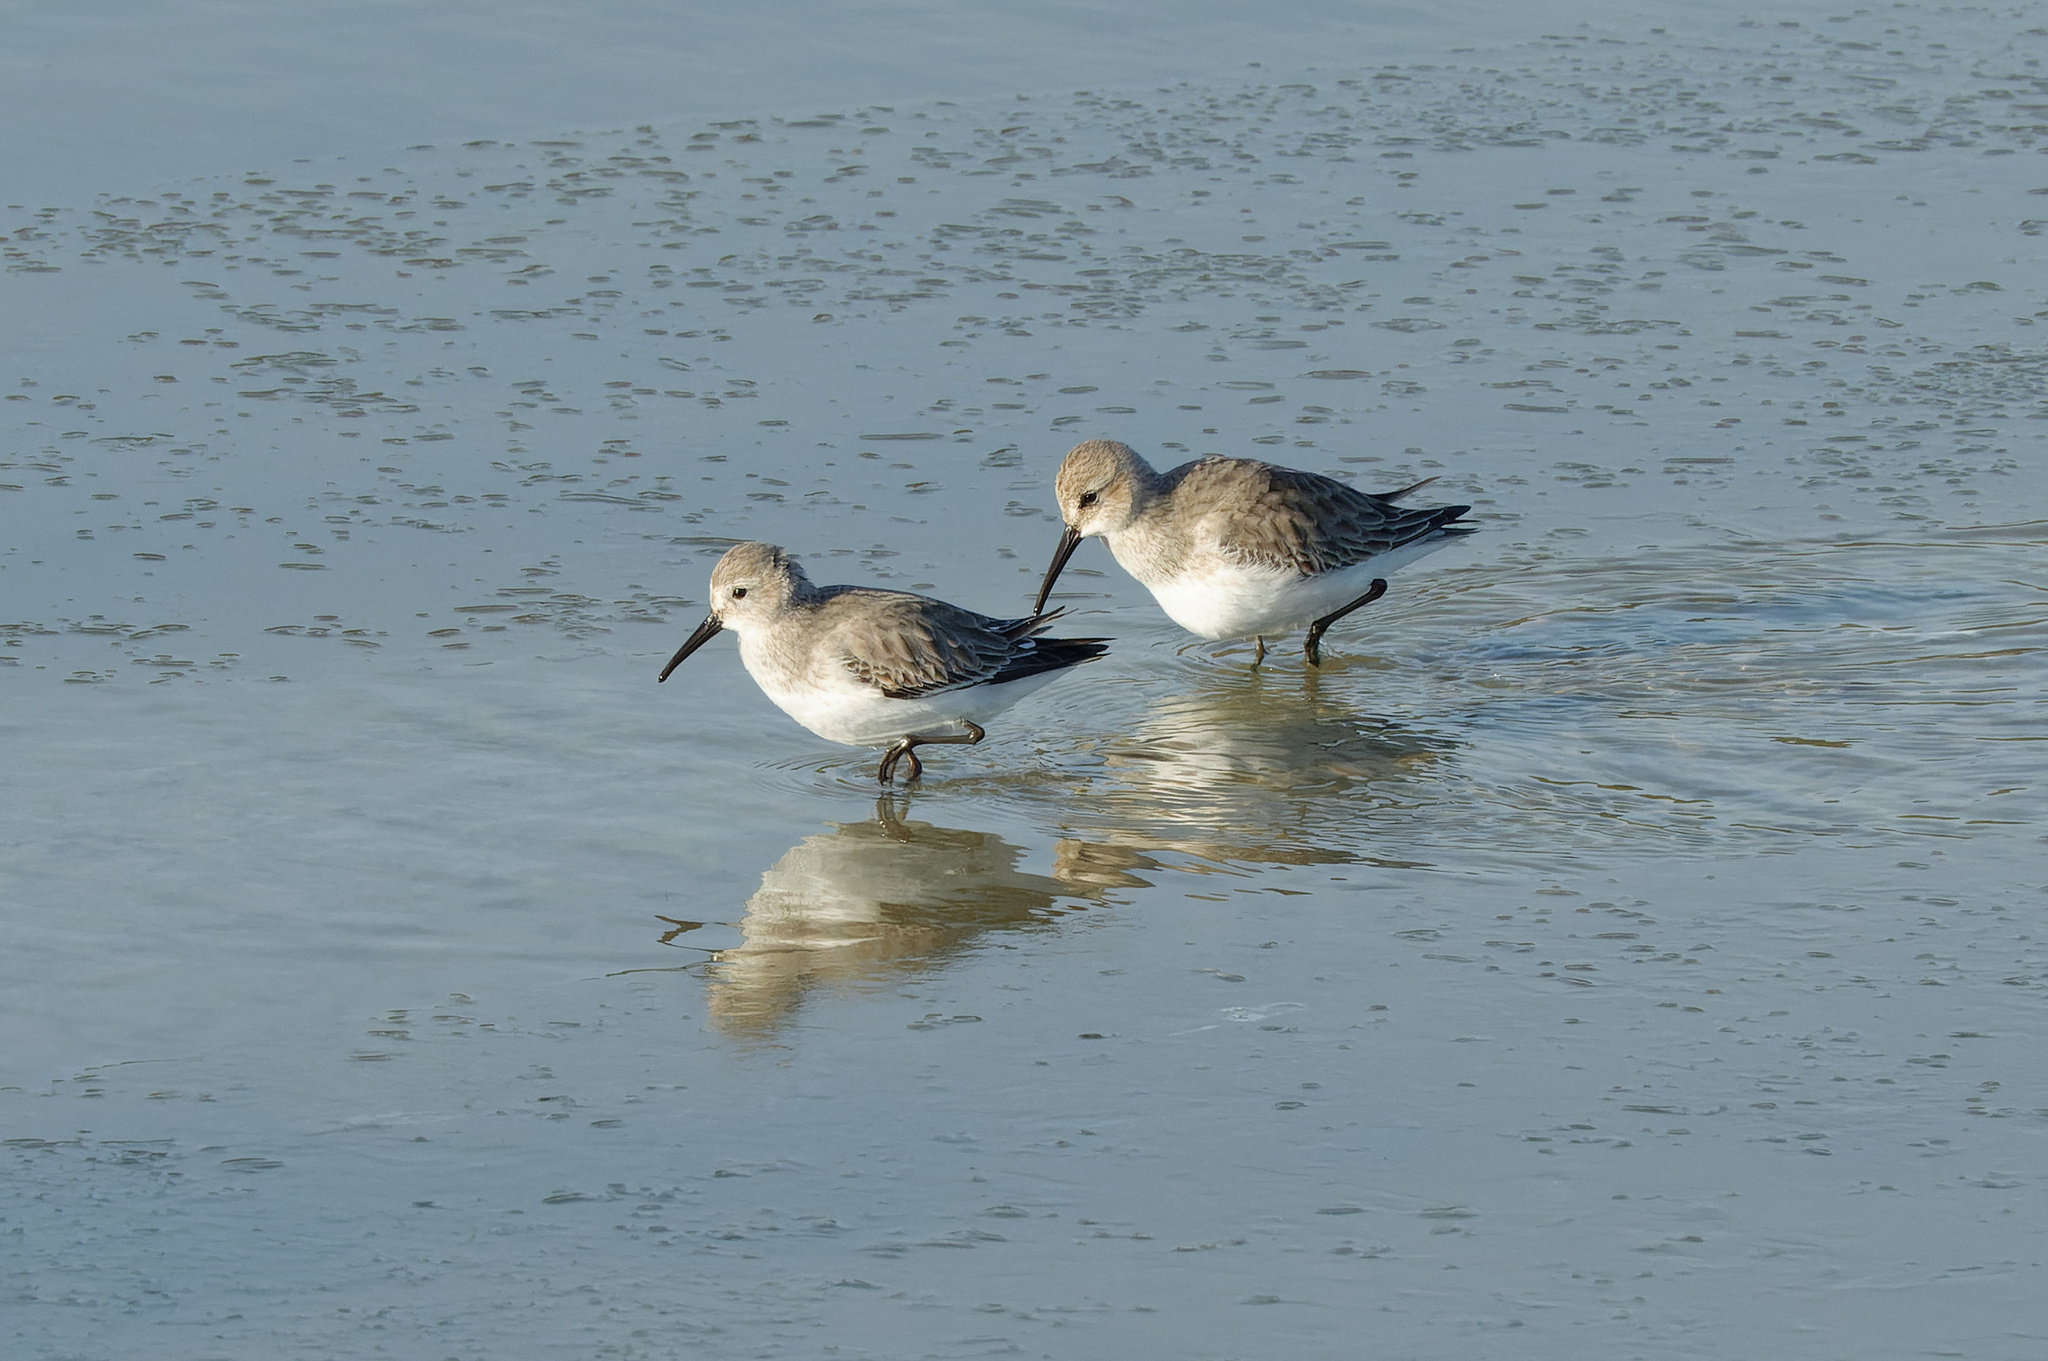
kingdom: Animalia
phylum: Chordata
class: Aves
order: Charadriiformes
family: Scolopacidae
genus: Calidris
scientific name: Calidris alpina
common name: Dunlin
